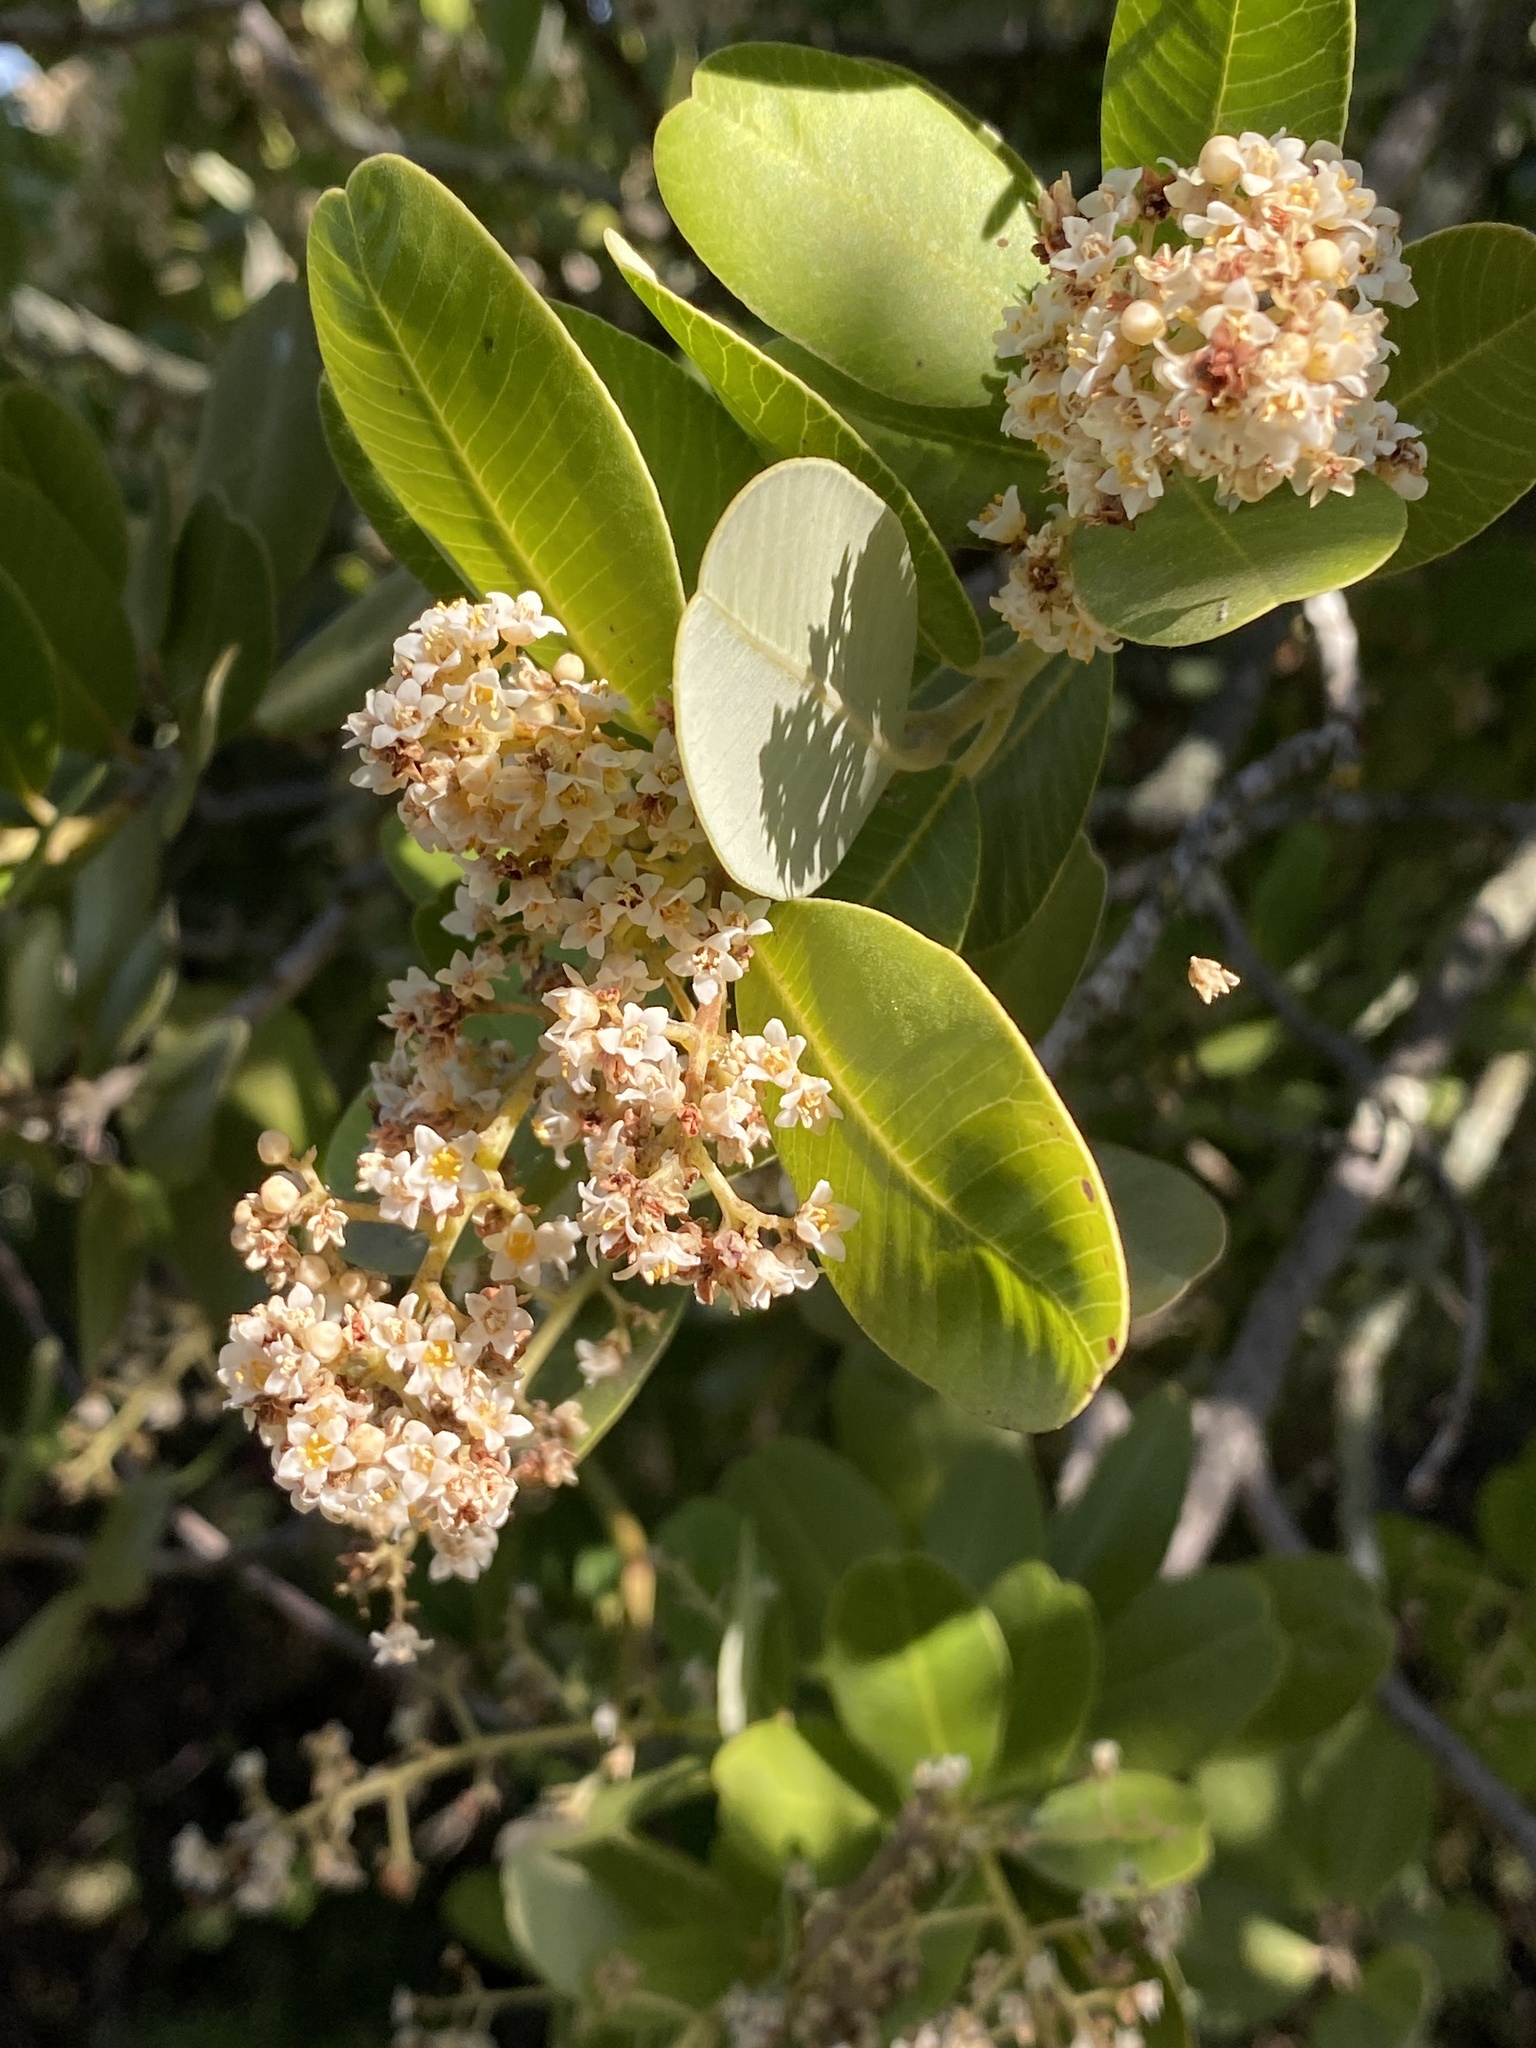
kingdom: Plantae
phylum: Tracheophyta
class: Magnoliopsida
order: Sapindales
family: Anacardiaceae
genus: Heeria
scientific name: Heeria argentea
